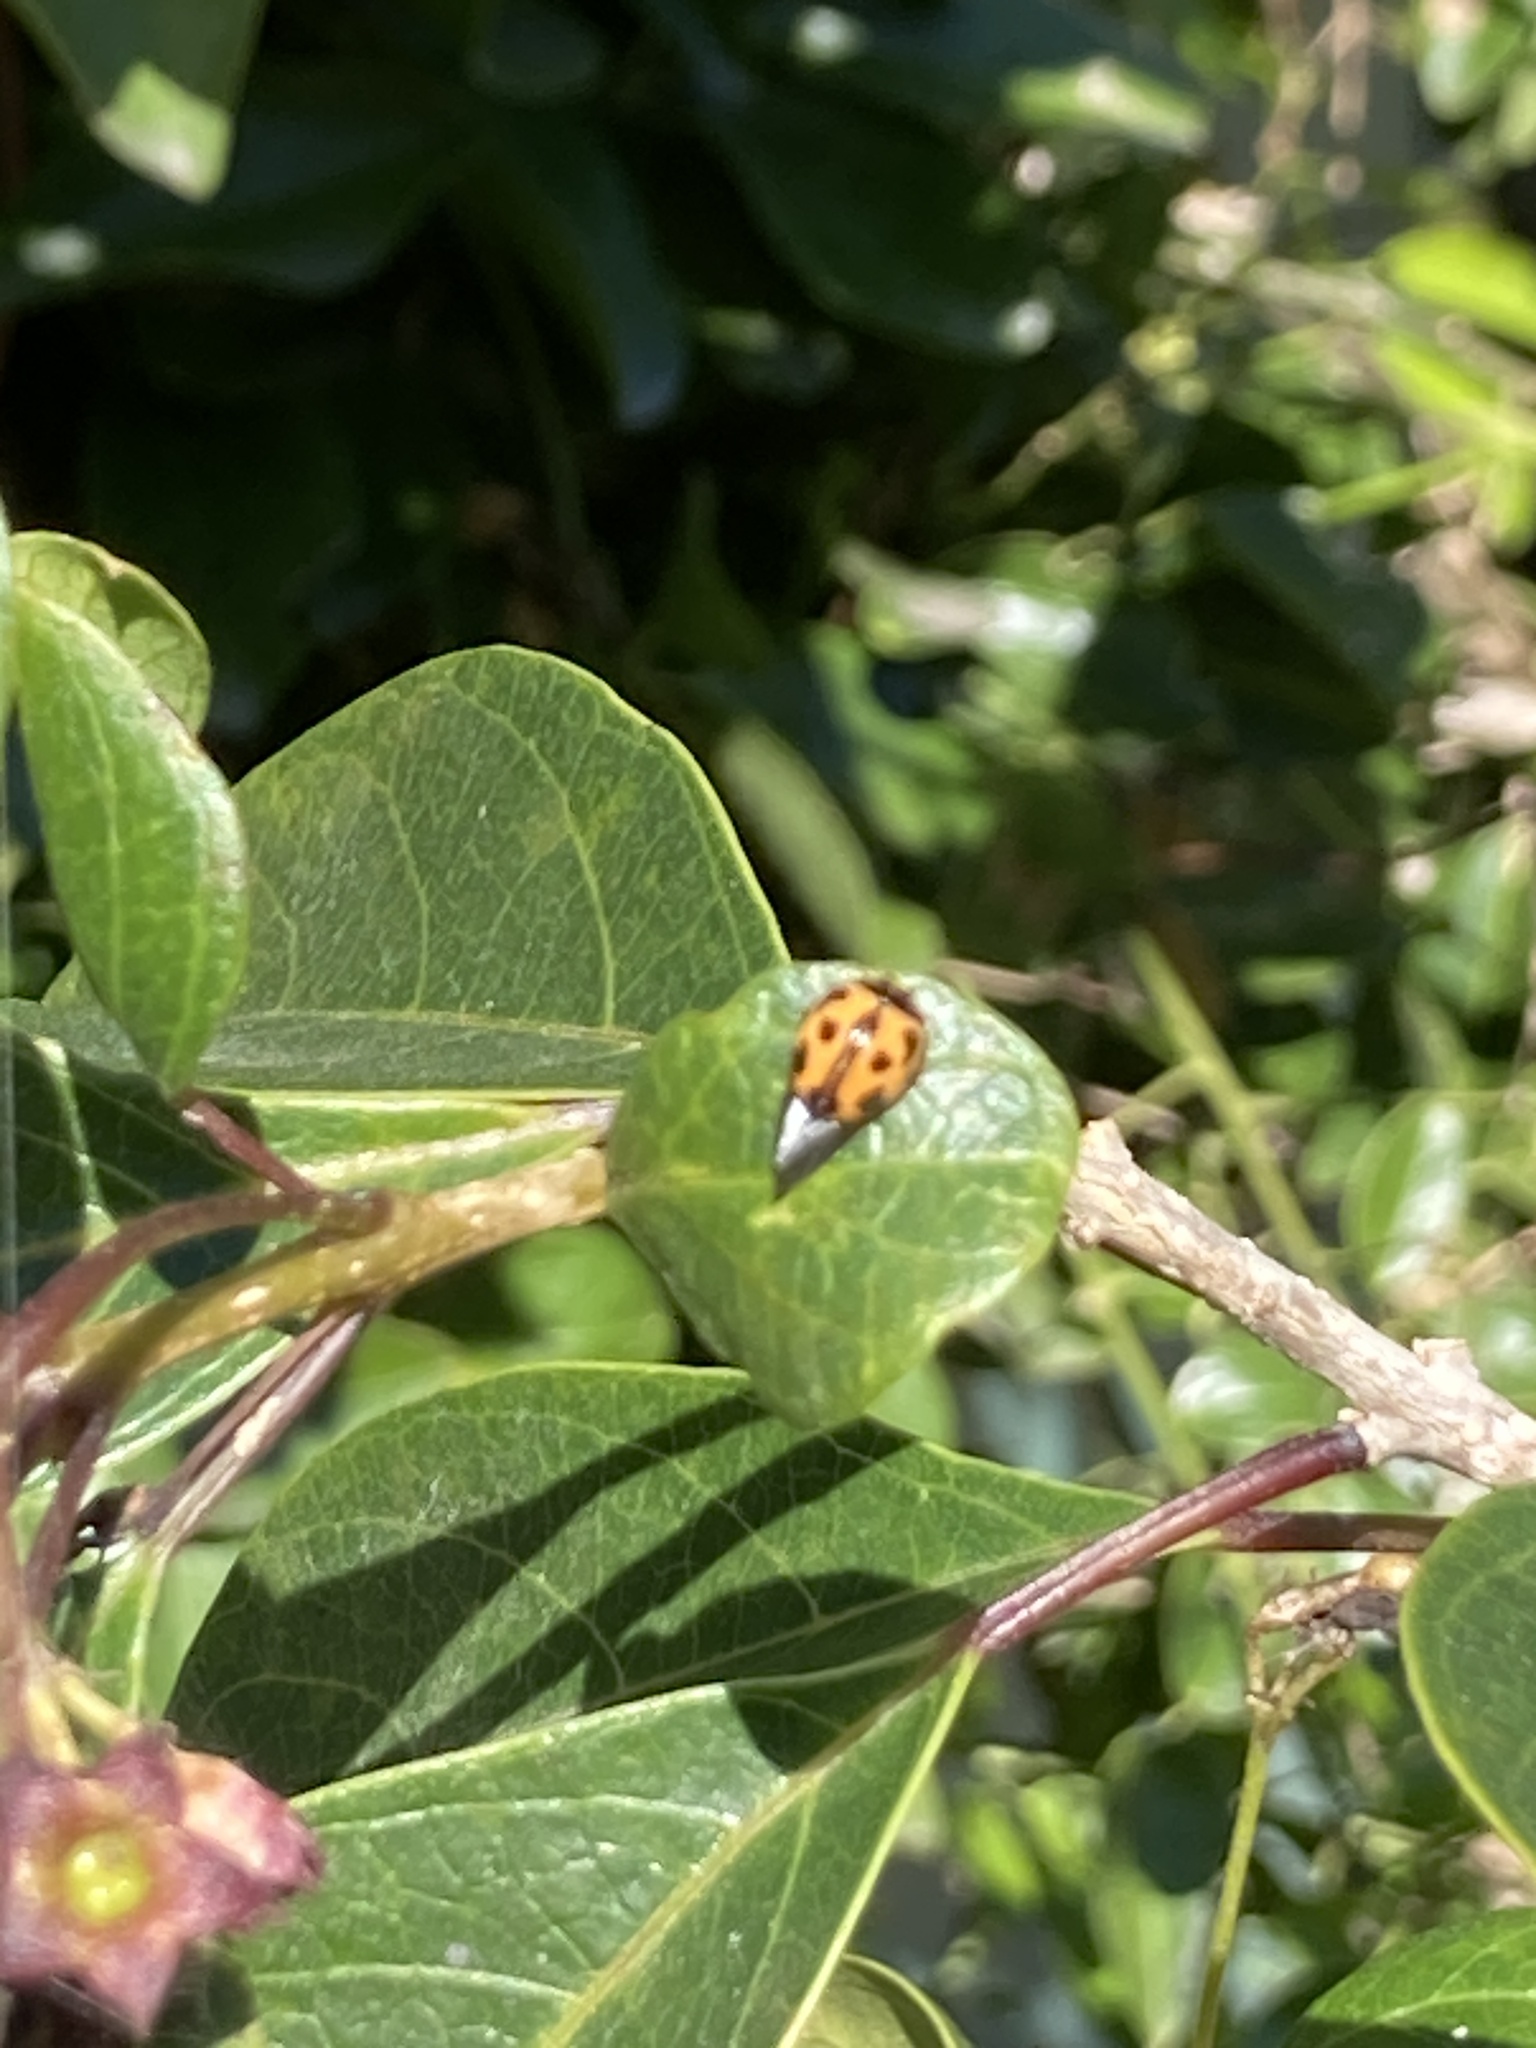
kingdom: Animalia
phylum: Arthropoda
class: Insecta
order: Coleoptera
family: Coccinellidae
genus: Coelophora
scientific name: Coelophora inaequalis
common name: Common australian lady beetle
